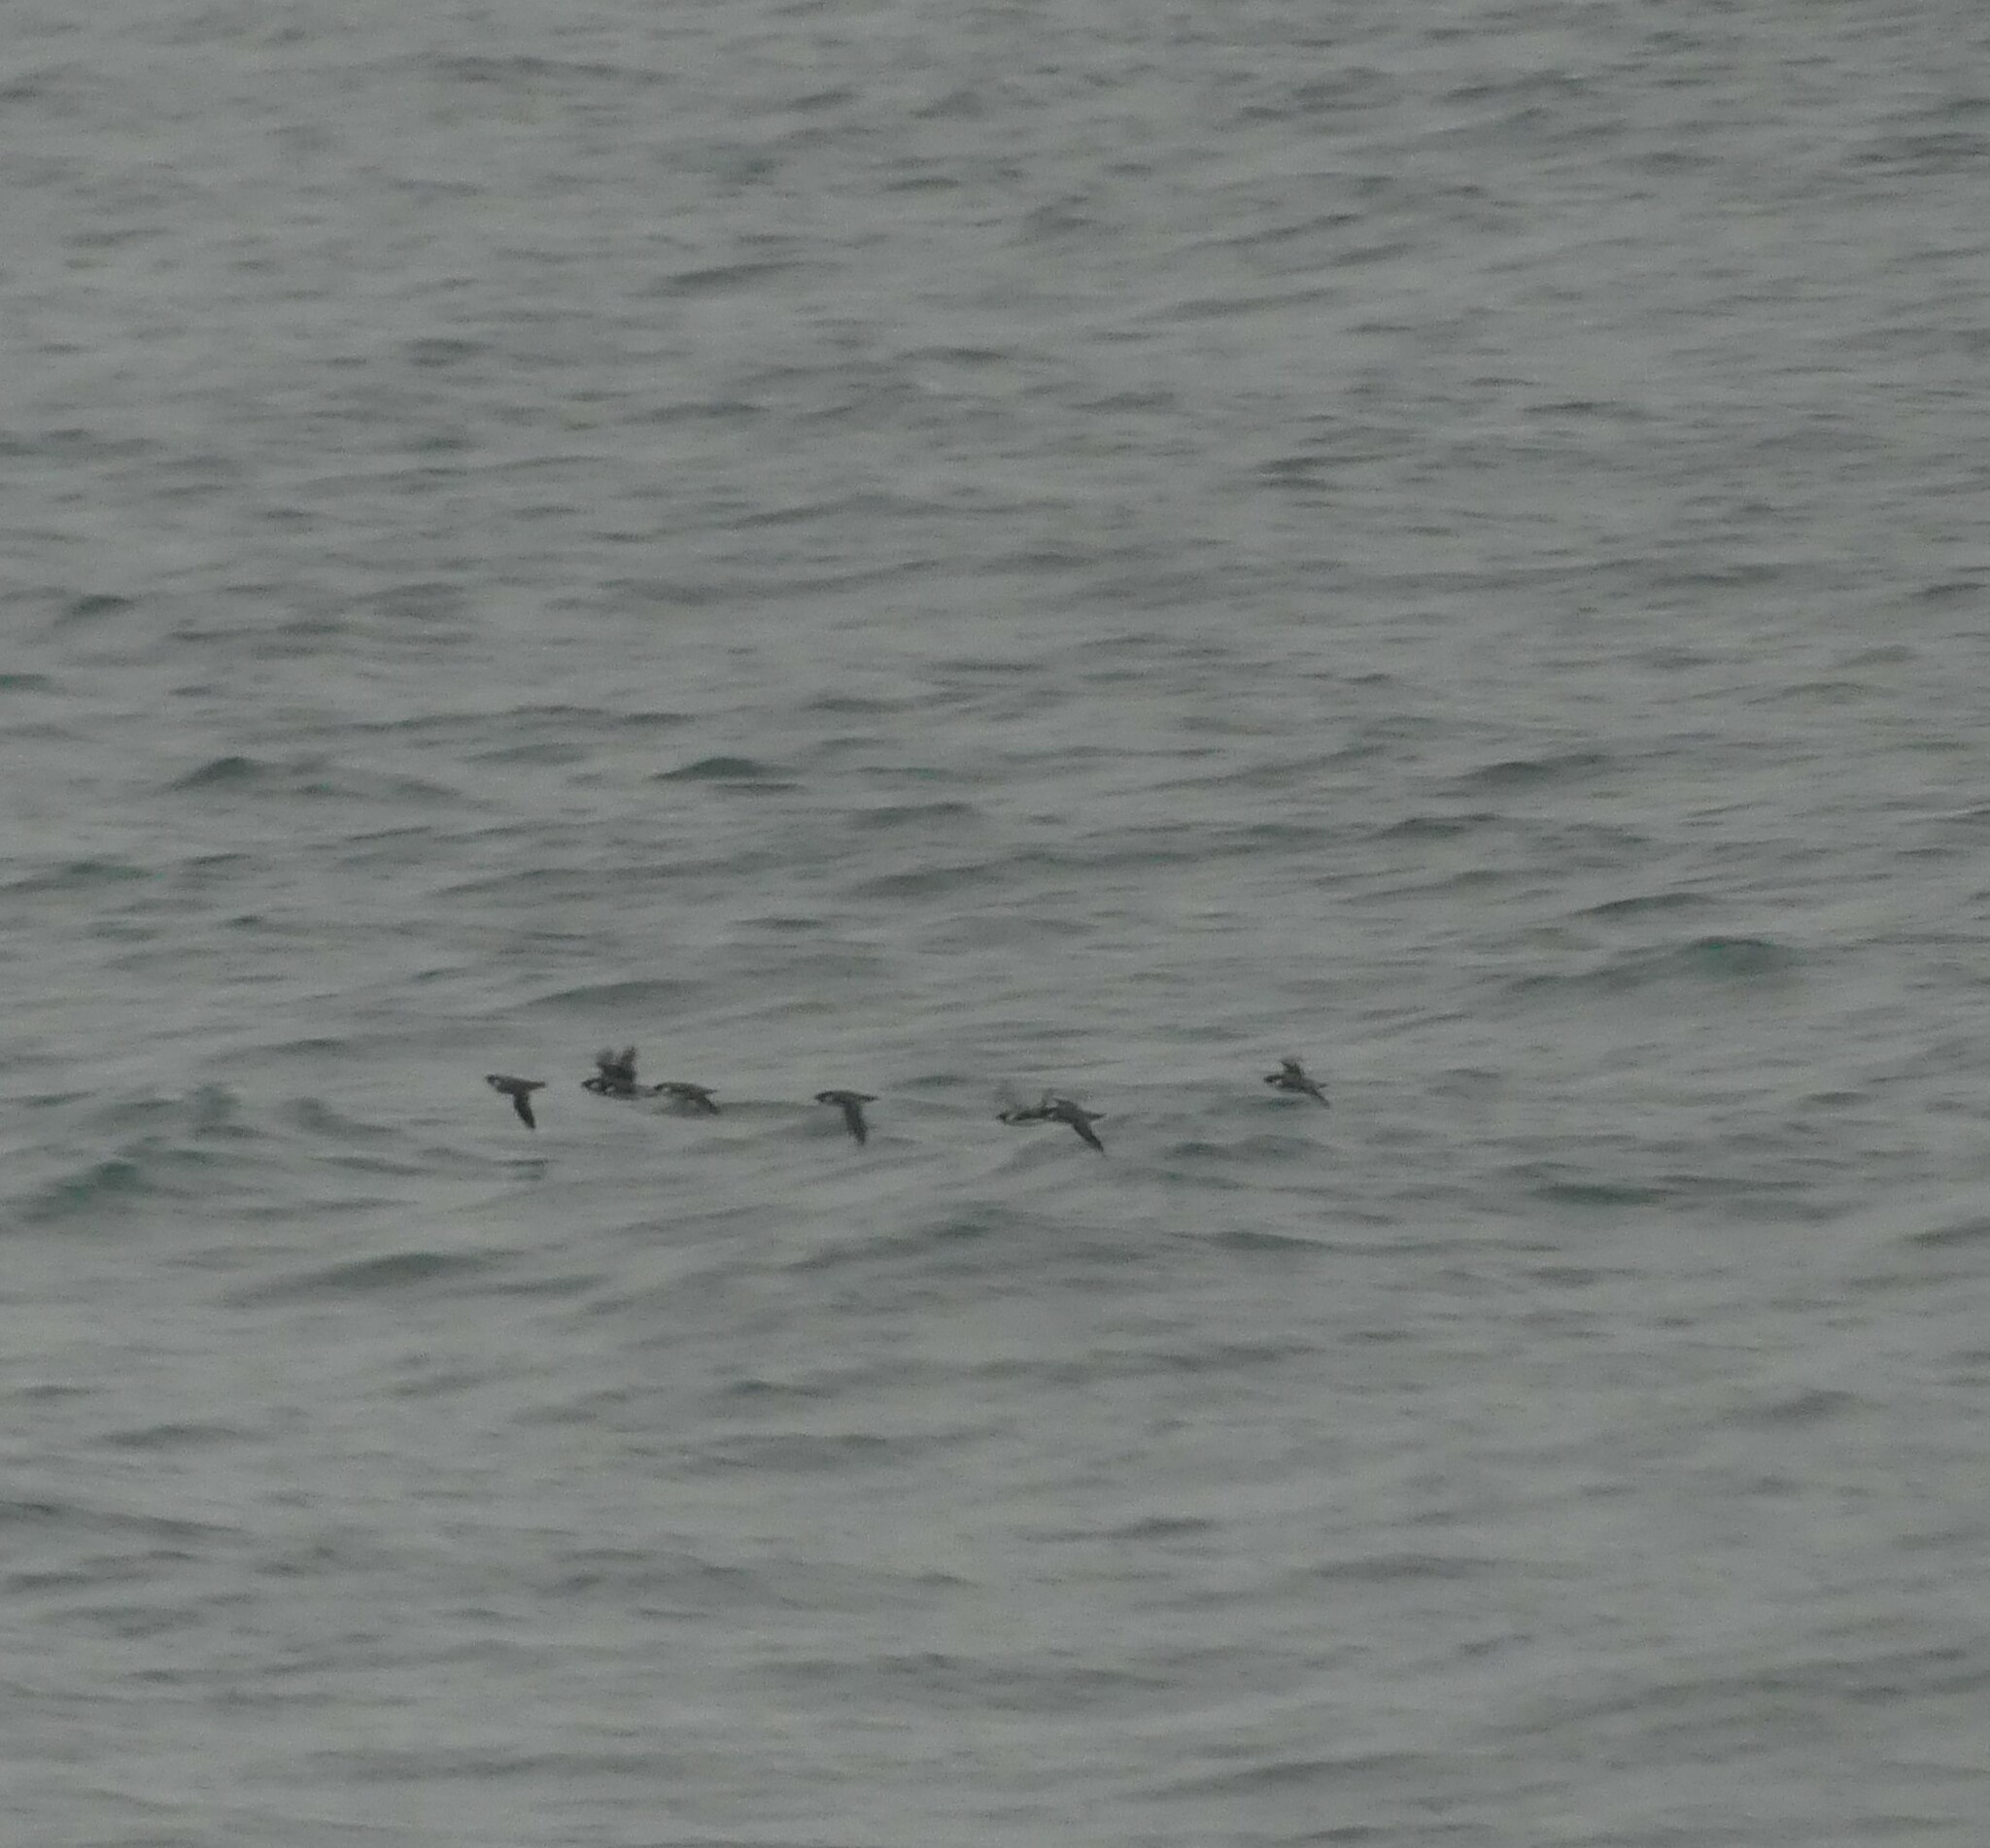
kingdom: Animalia
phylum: Chordata
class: Aves
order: Charadriiformes
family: Alcidae
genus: Synthliboramphus
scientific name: Synthliboramphus antiquus
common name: Ancient murrelet
